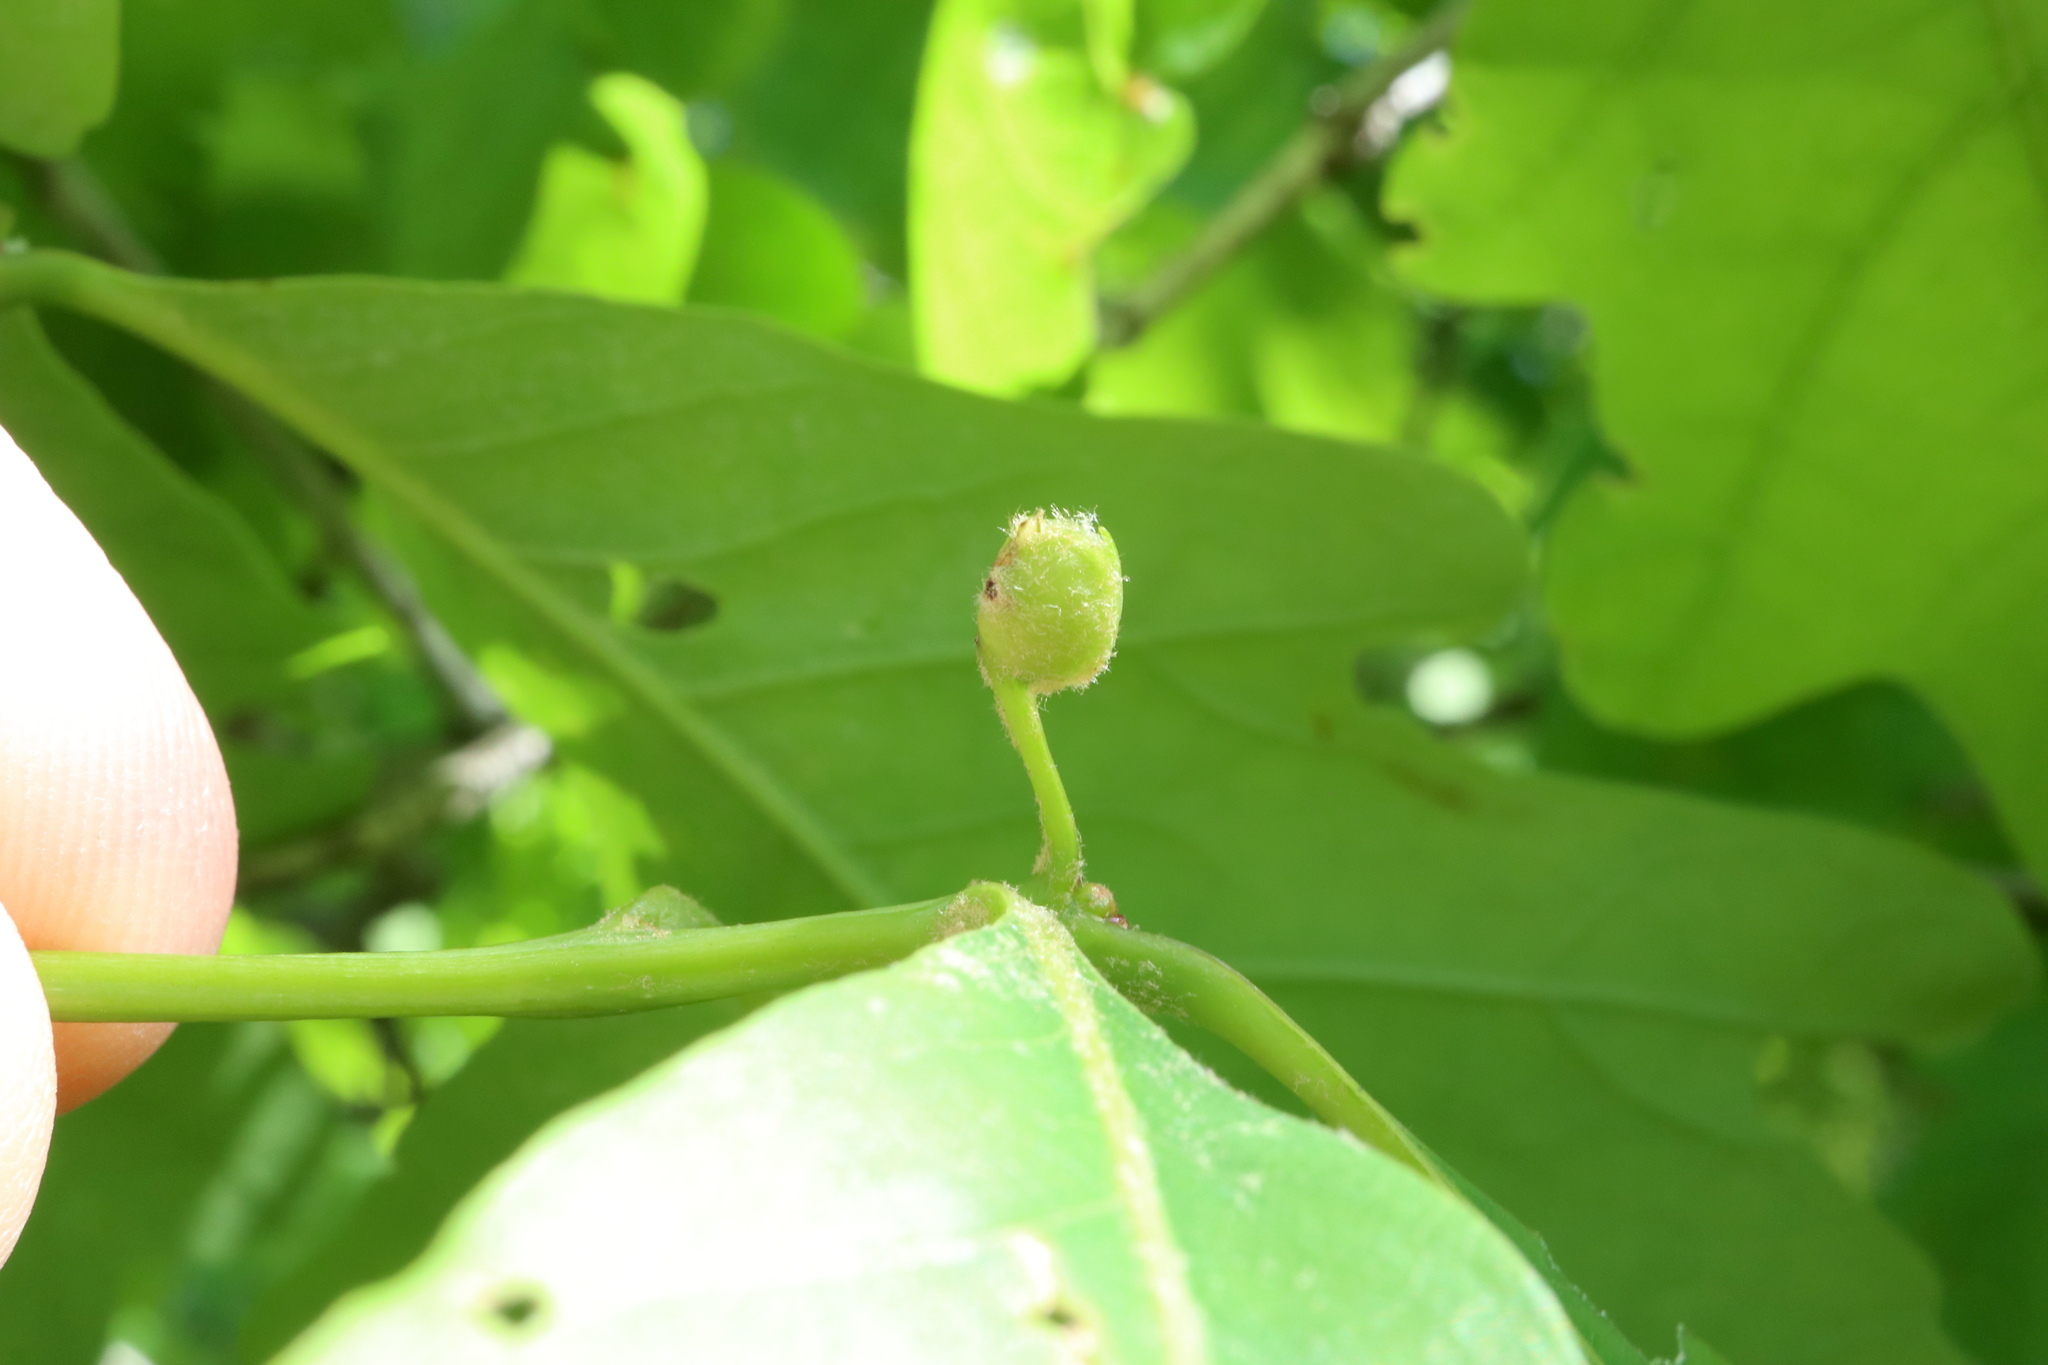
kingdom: Animalia
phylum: Arthropoda
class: Insecta
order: Hymenoptera
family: Cynipidae
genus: Andricus
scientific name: Andricus
